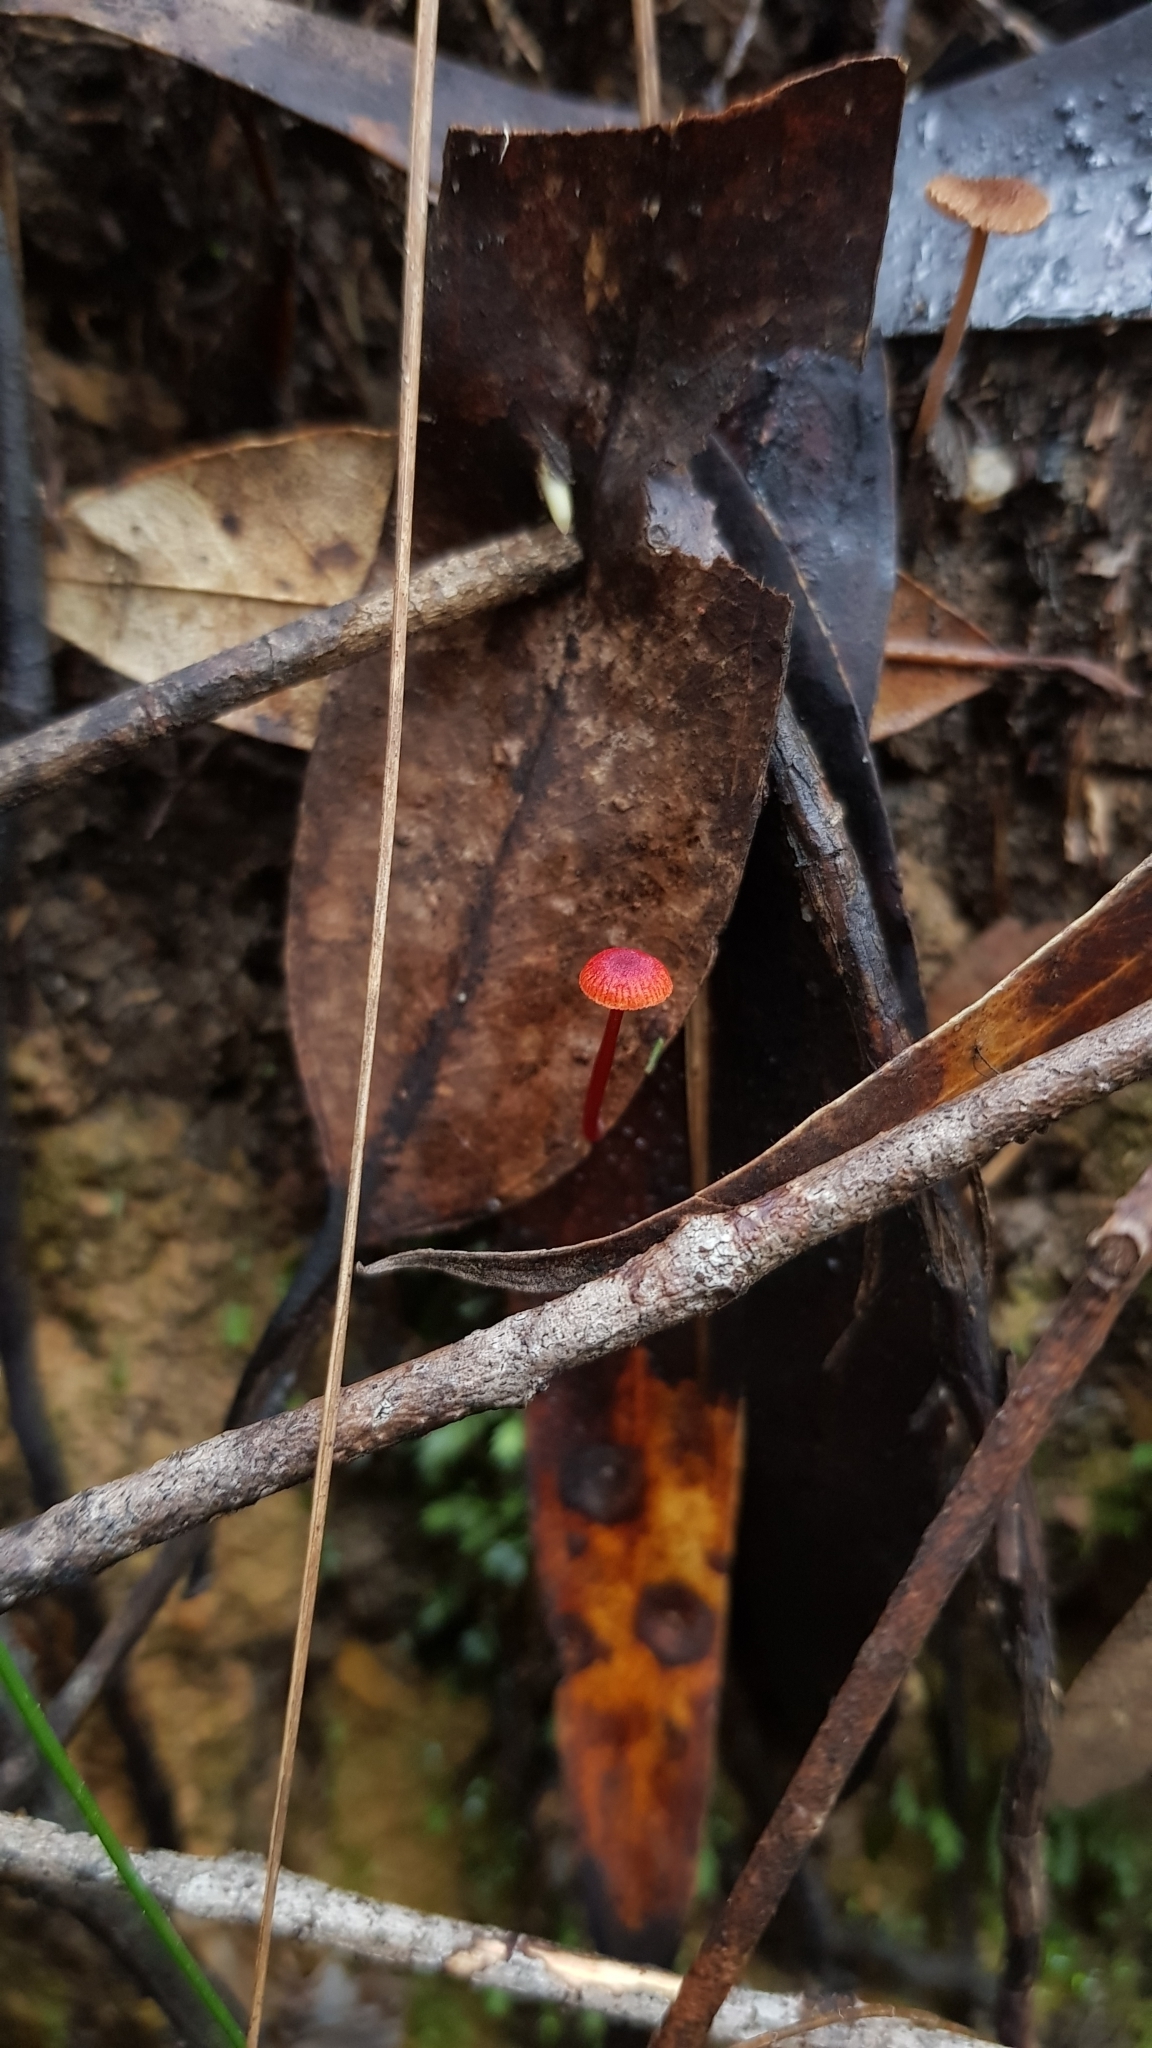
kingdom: Fungi
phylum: Basidiomycota
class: Agaricomycetes
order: Agaricales
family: Mycenaceae
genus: Cruentomycena
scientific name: Cruentomycena viscidocruenta
